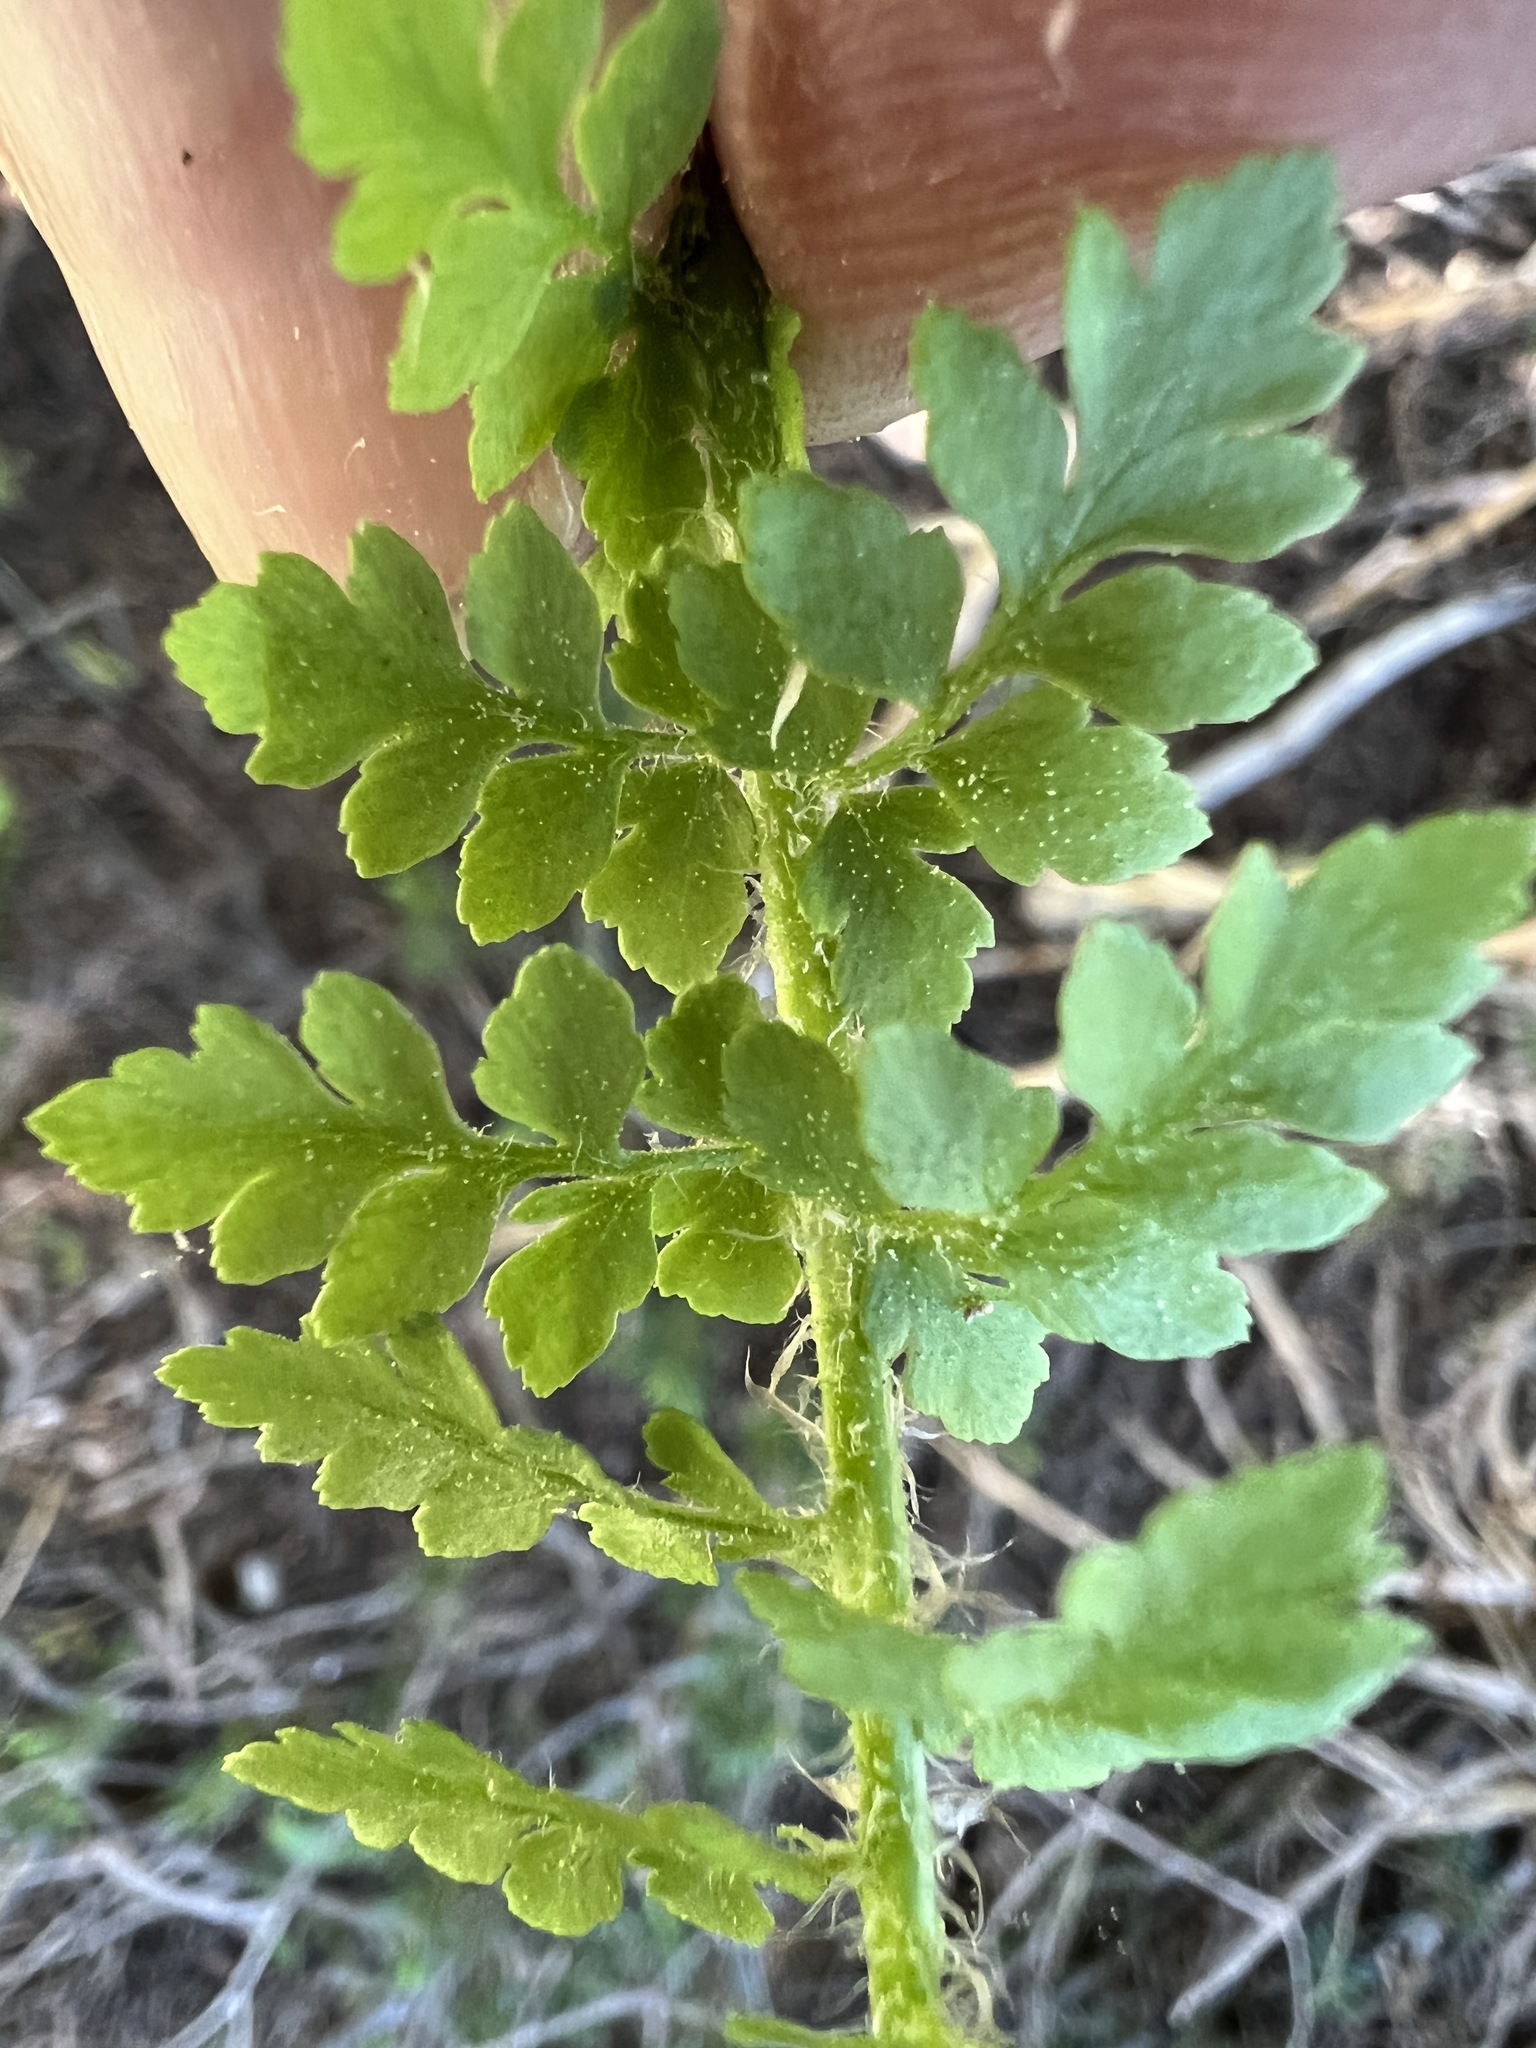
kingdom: Plantae
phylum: Tracheophyta
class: Polypodiopsida
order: Polypodiales
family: Dryopteridaceae
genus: Polystichum
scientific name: Polystichum lemmonii
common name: Lemmon's holly fern
